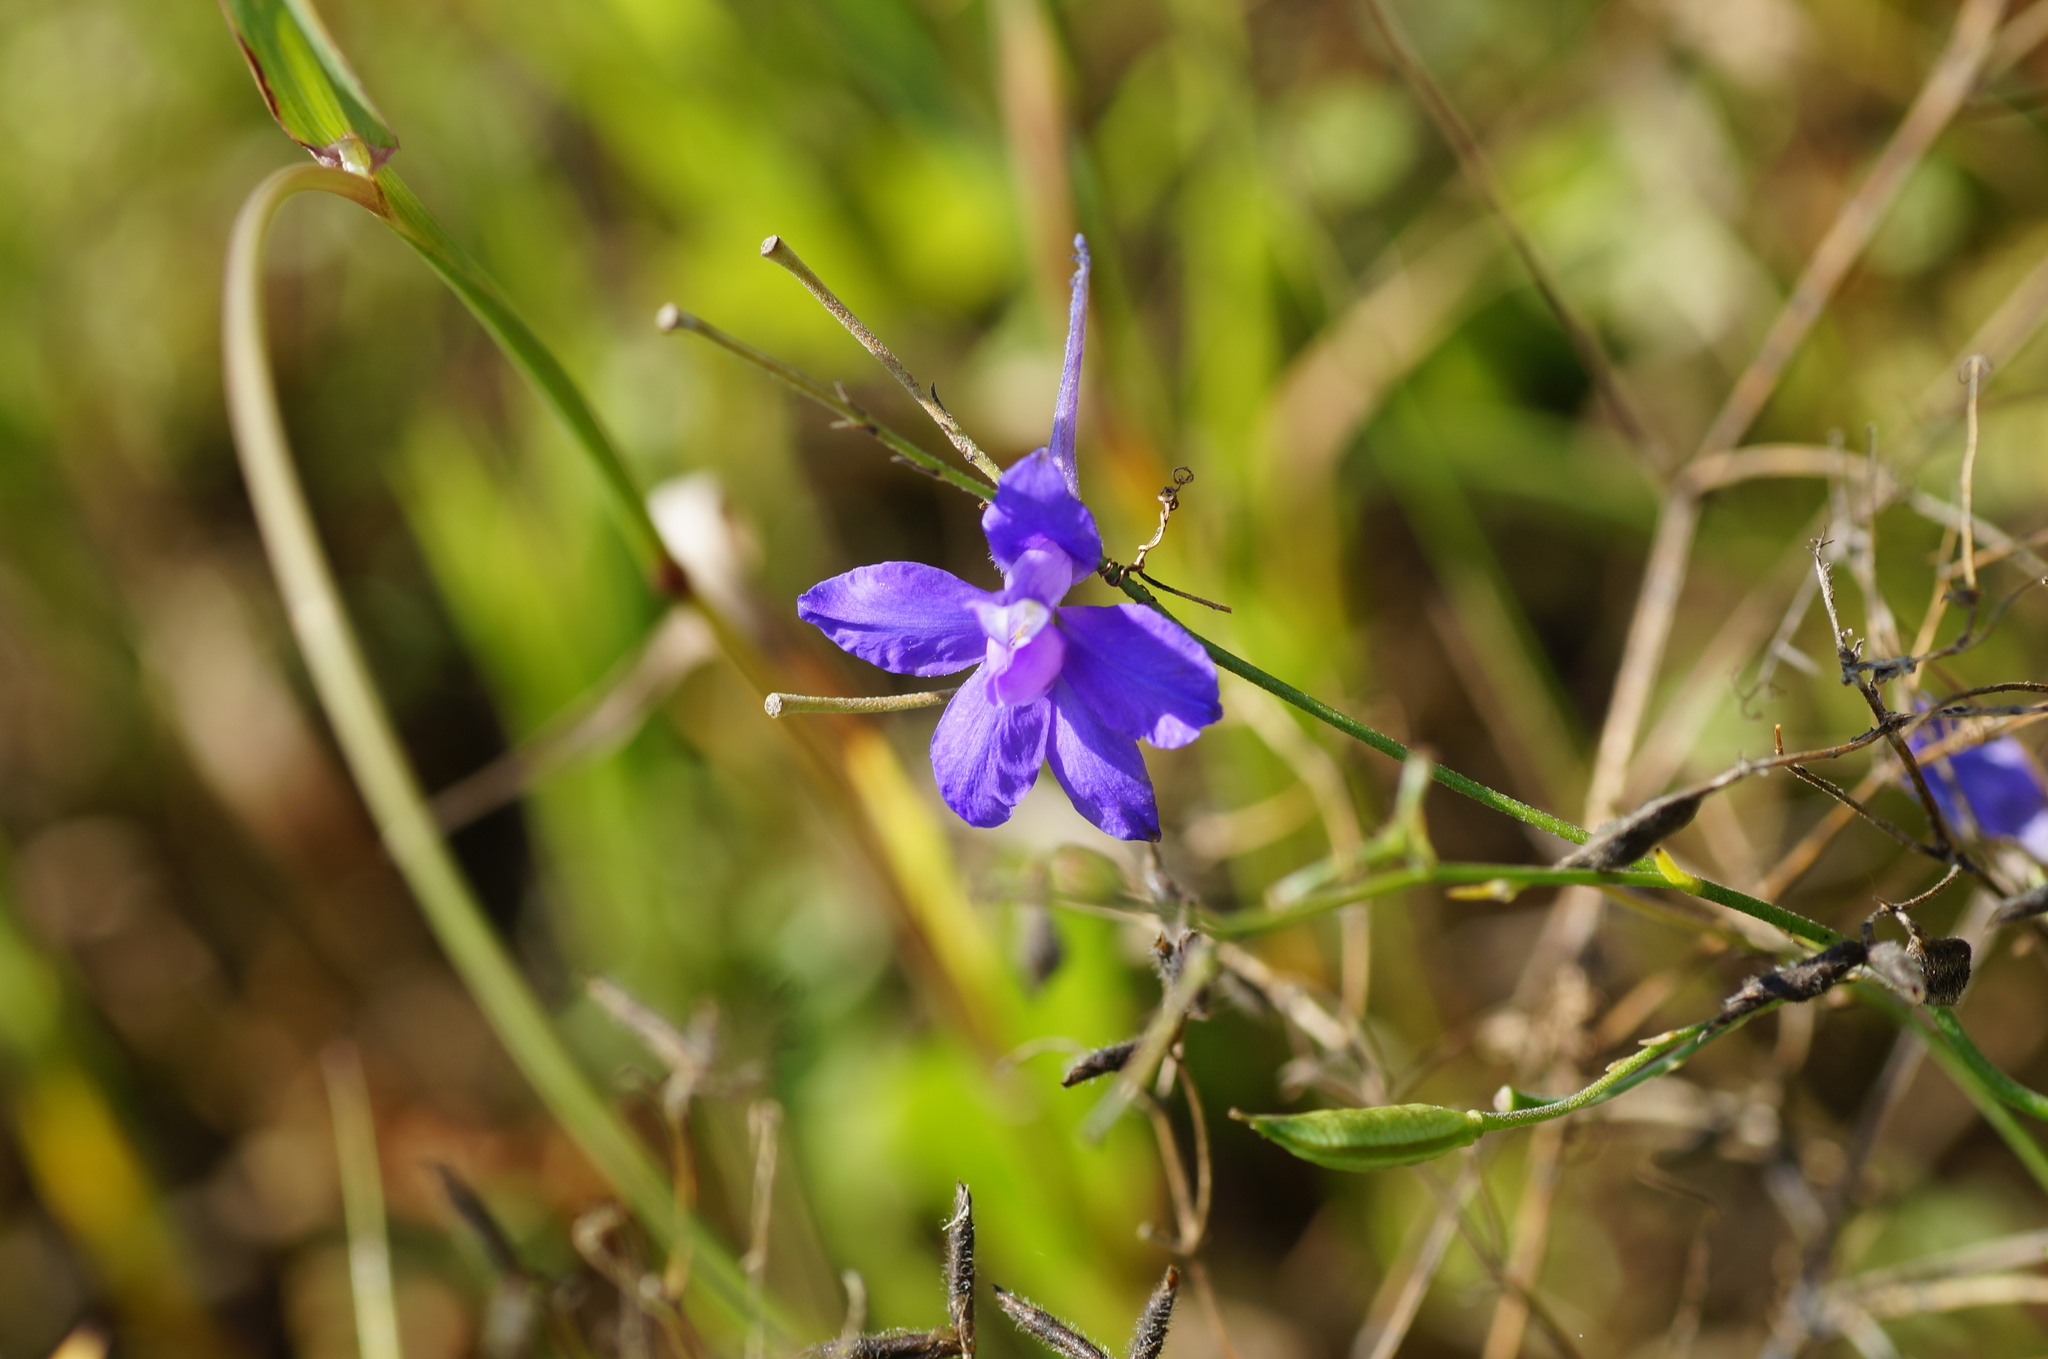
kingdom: Plantae
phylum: Tracheophyta
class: Magnoliopsida
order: Ranunculales
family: Ranunculaceae
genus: Delphinium
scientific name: Delphinium consolida
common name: Branching larkspur
